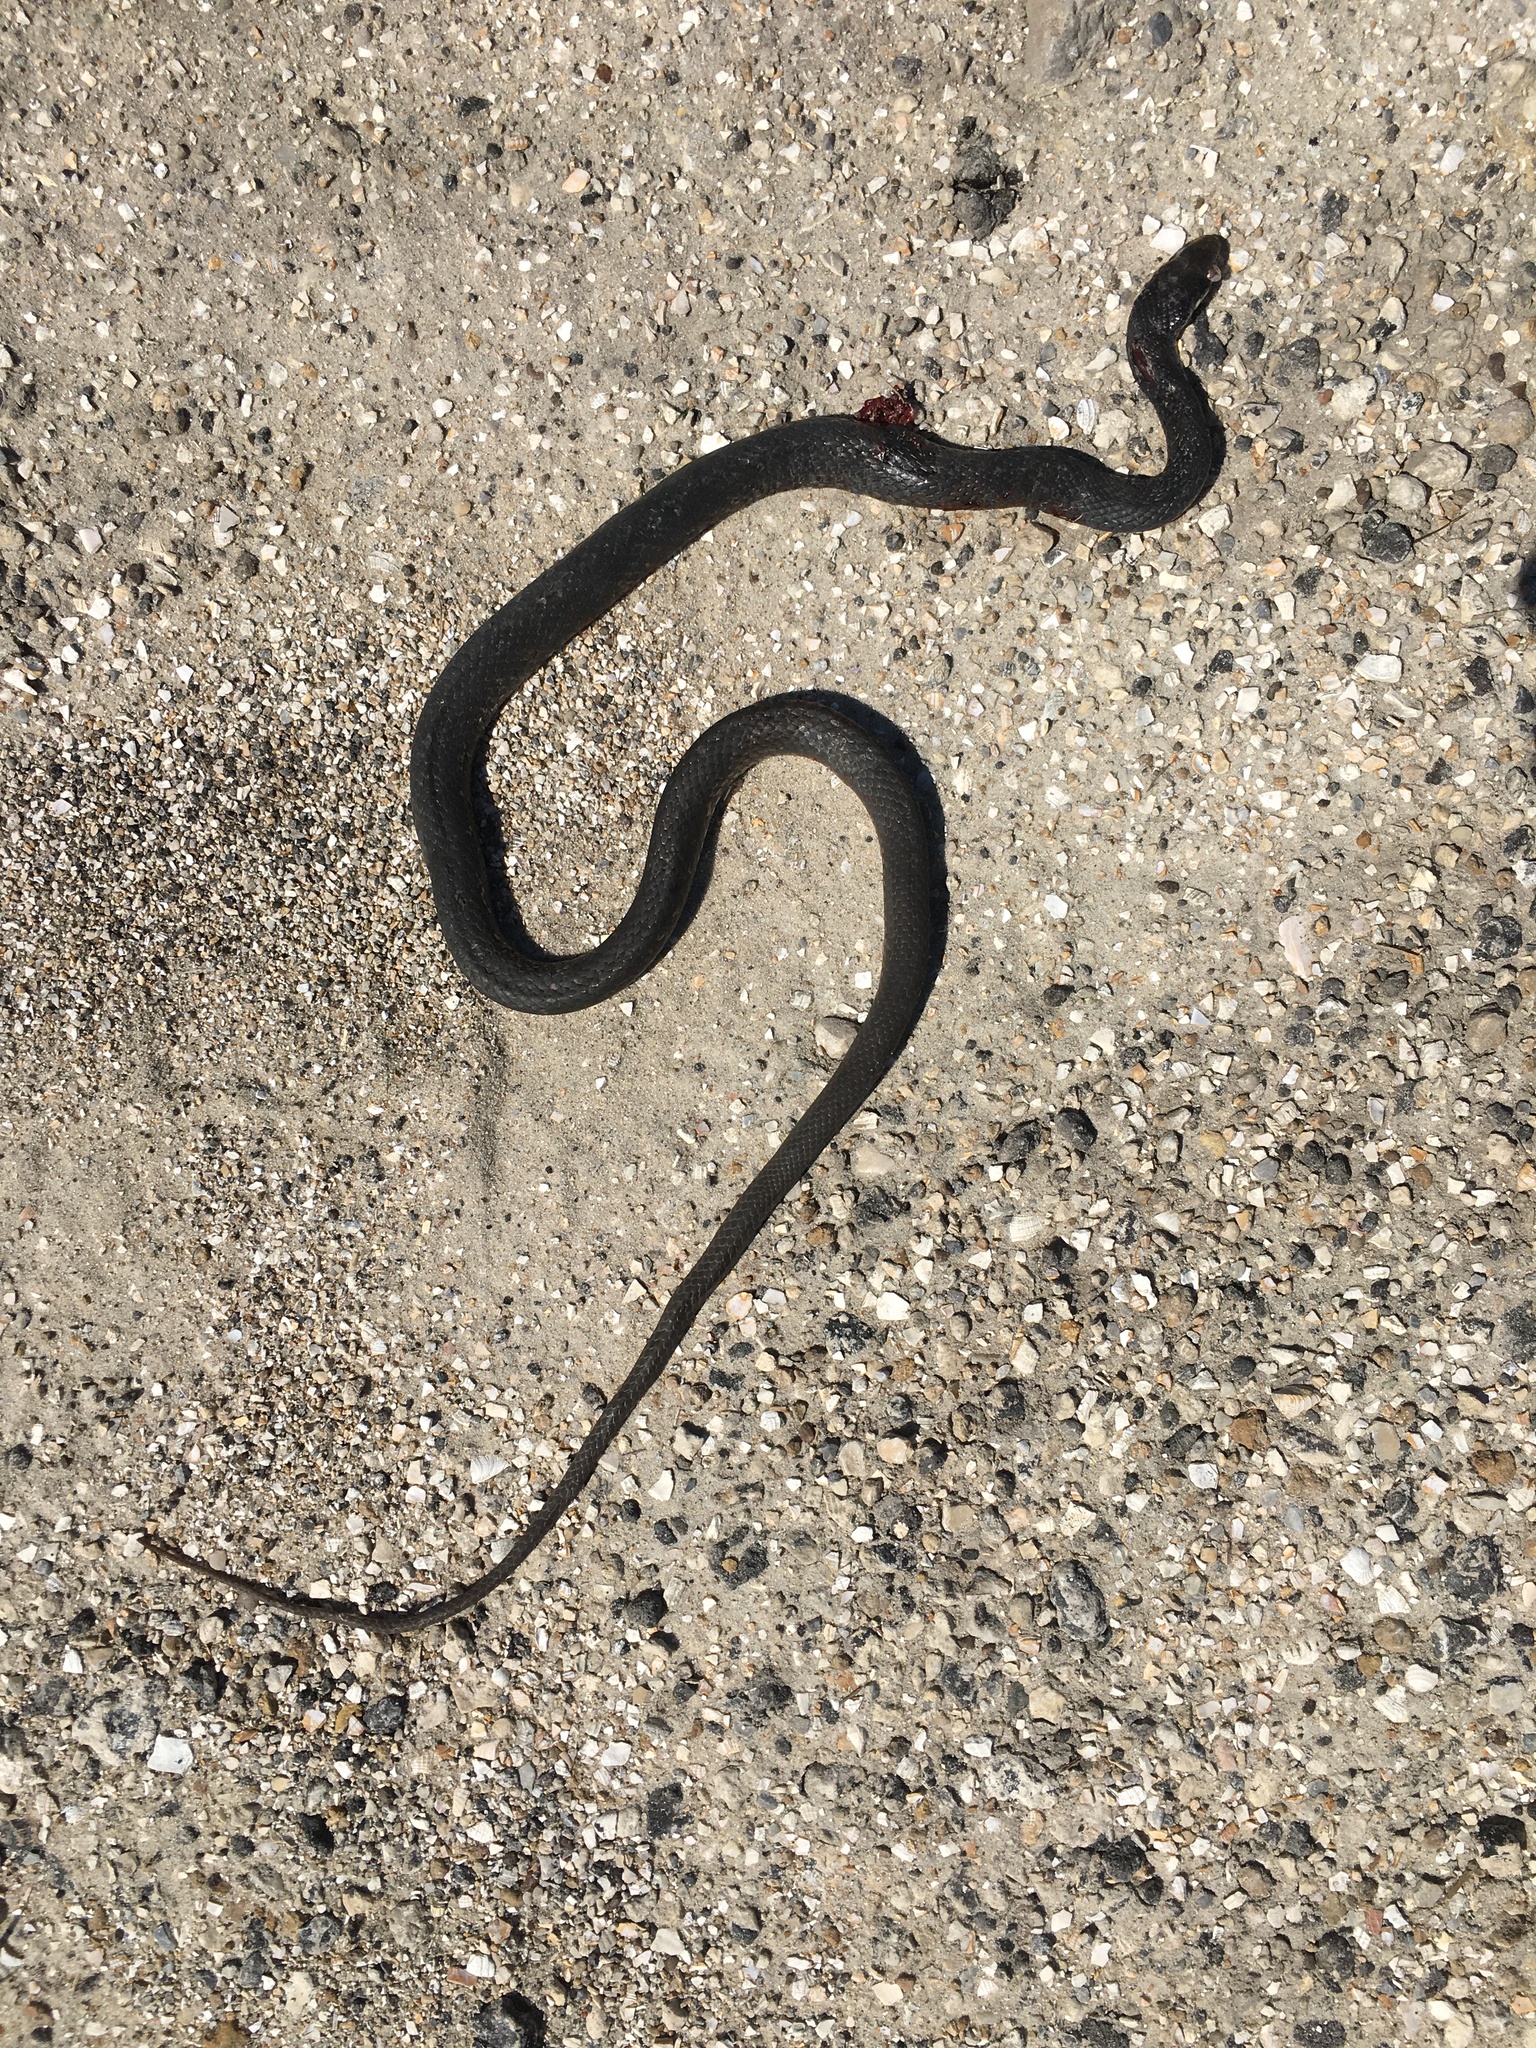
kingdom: Animalia
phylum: Chordata
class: Squamata
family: Colubridae
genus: Coluber
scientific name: Coluber constrictor
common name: Eastern racer
